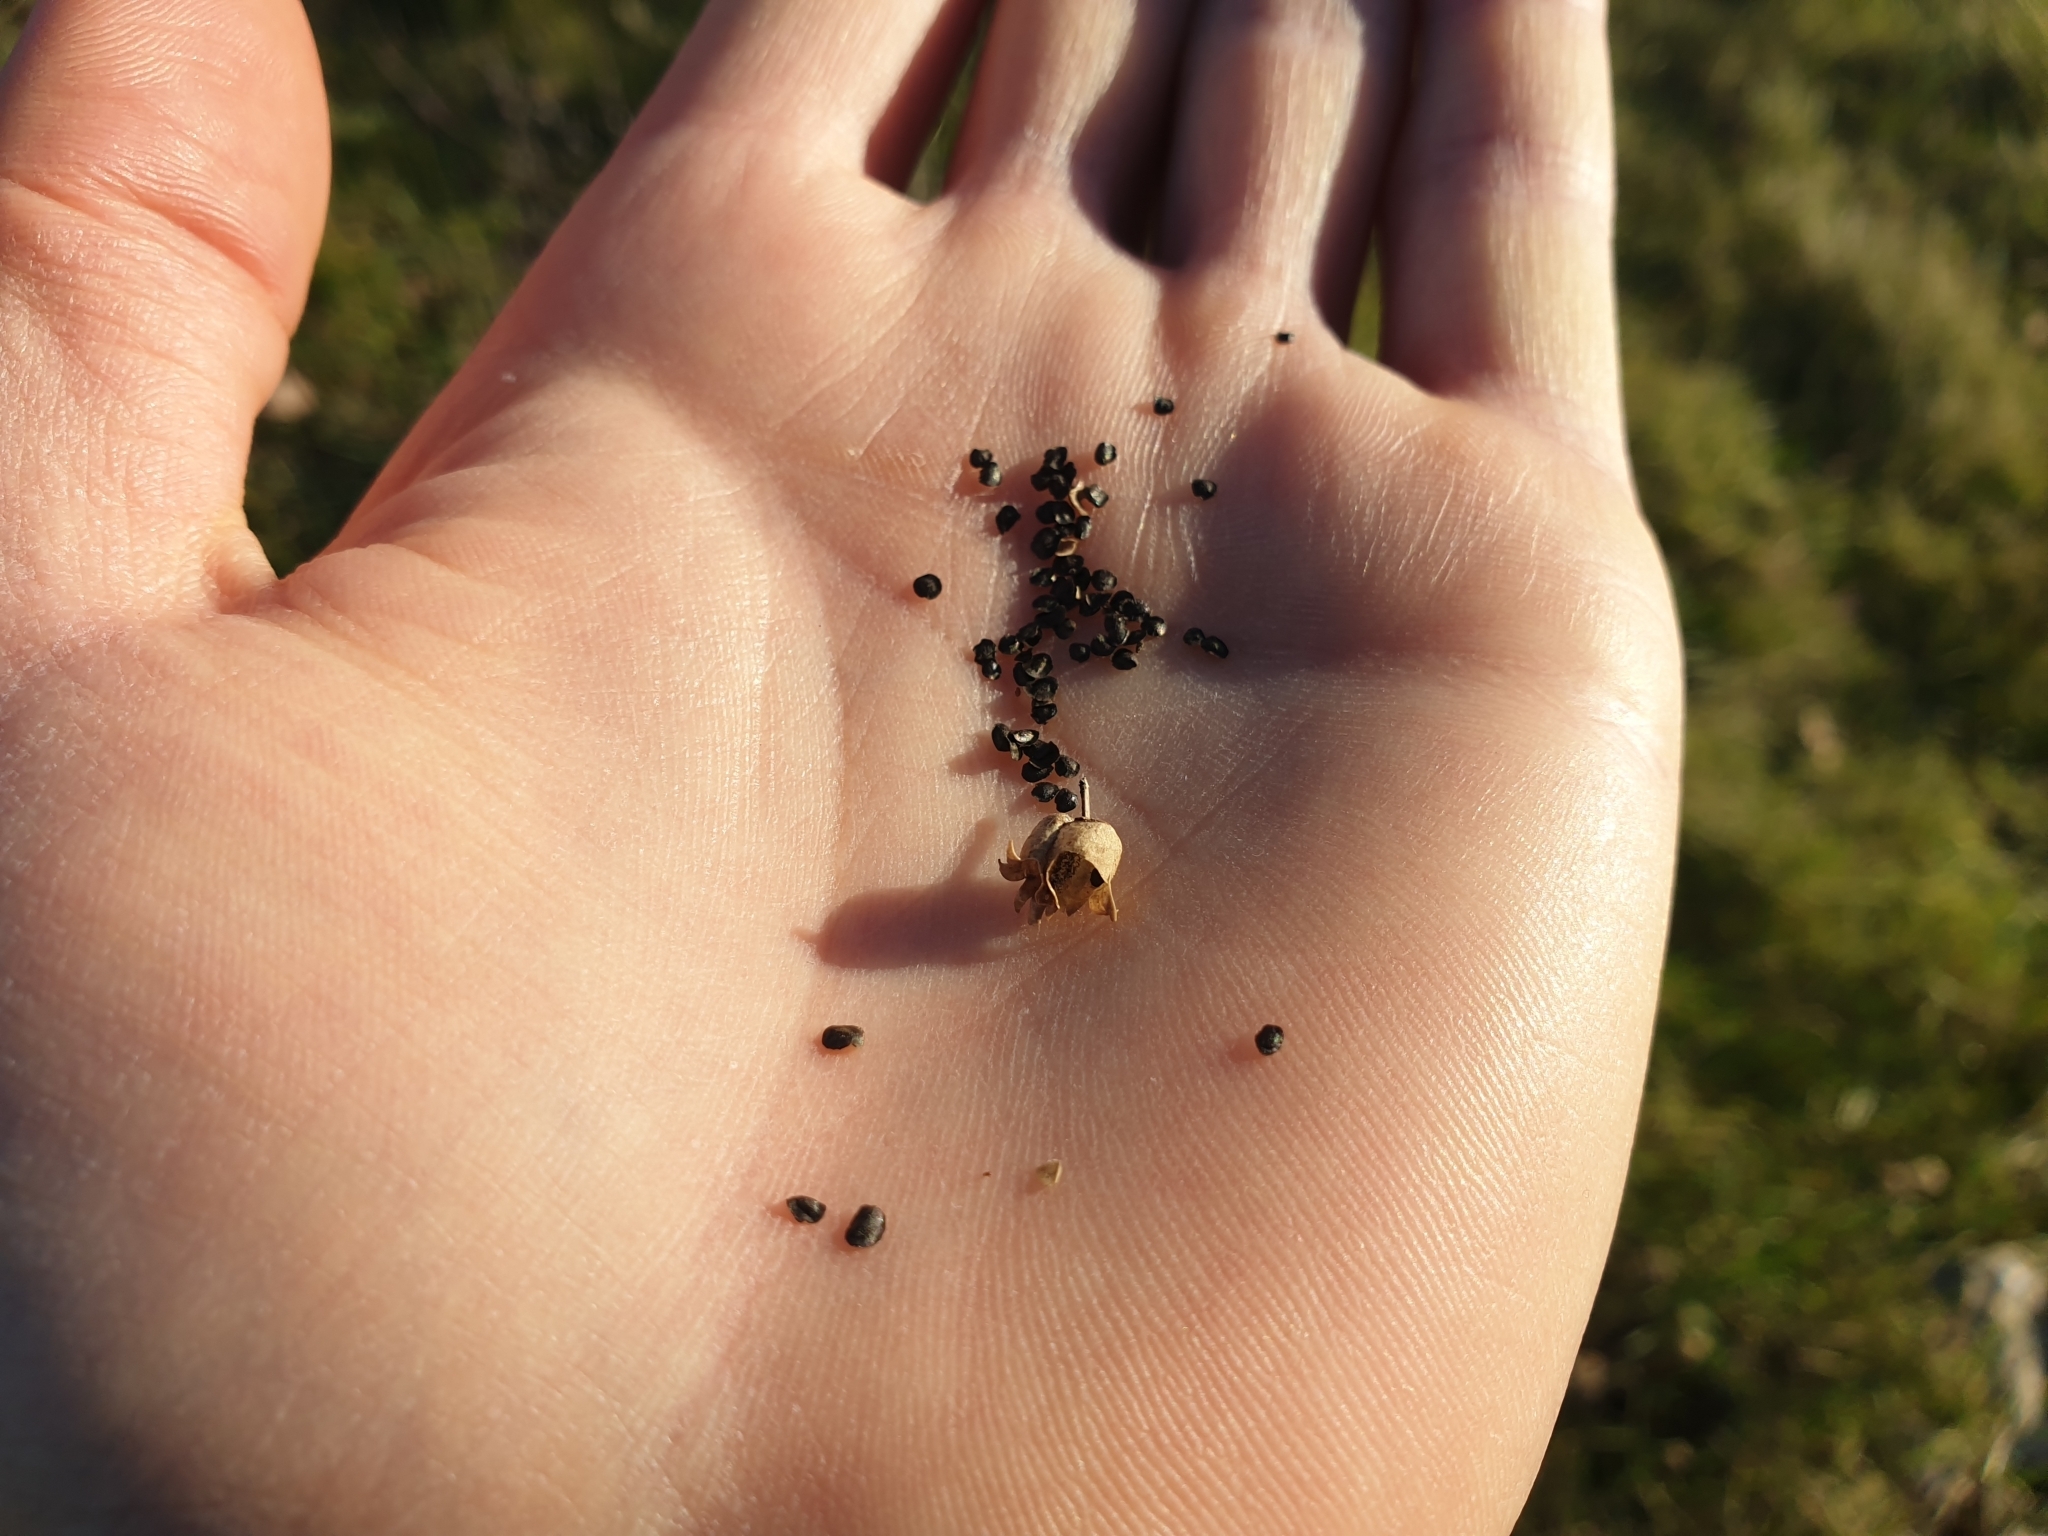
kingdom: Plantae
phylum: Tracheophyta
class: Magnoliopsida
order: Lamiales
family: Plantaginaceae
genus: Linaria
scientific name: Linaria vulgaris
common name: Butter and eggs
